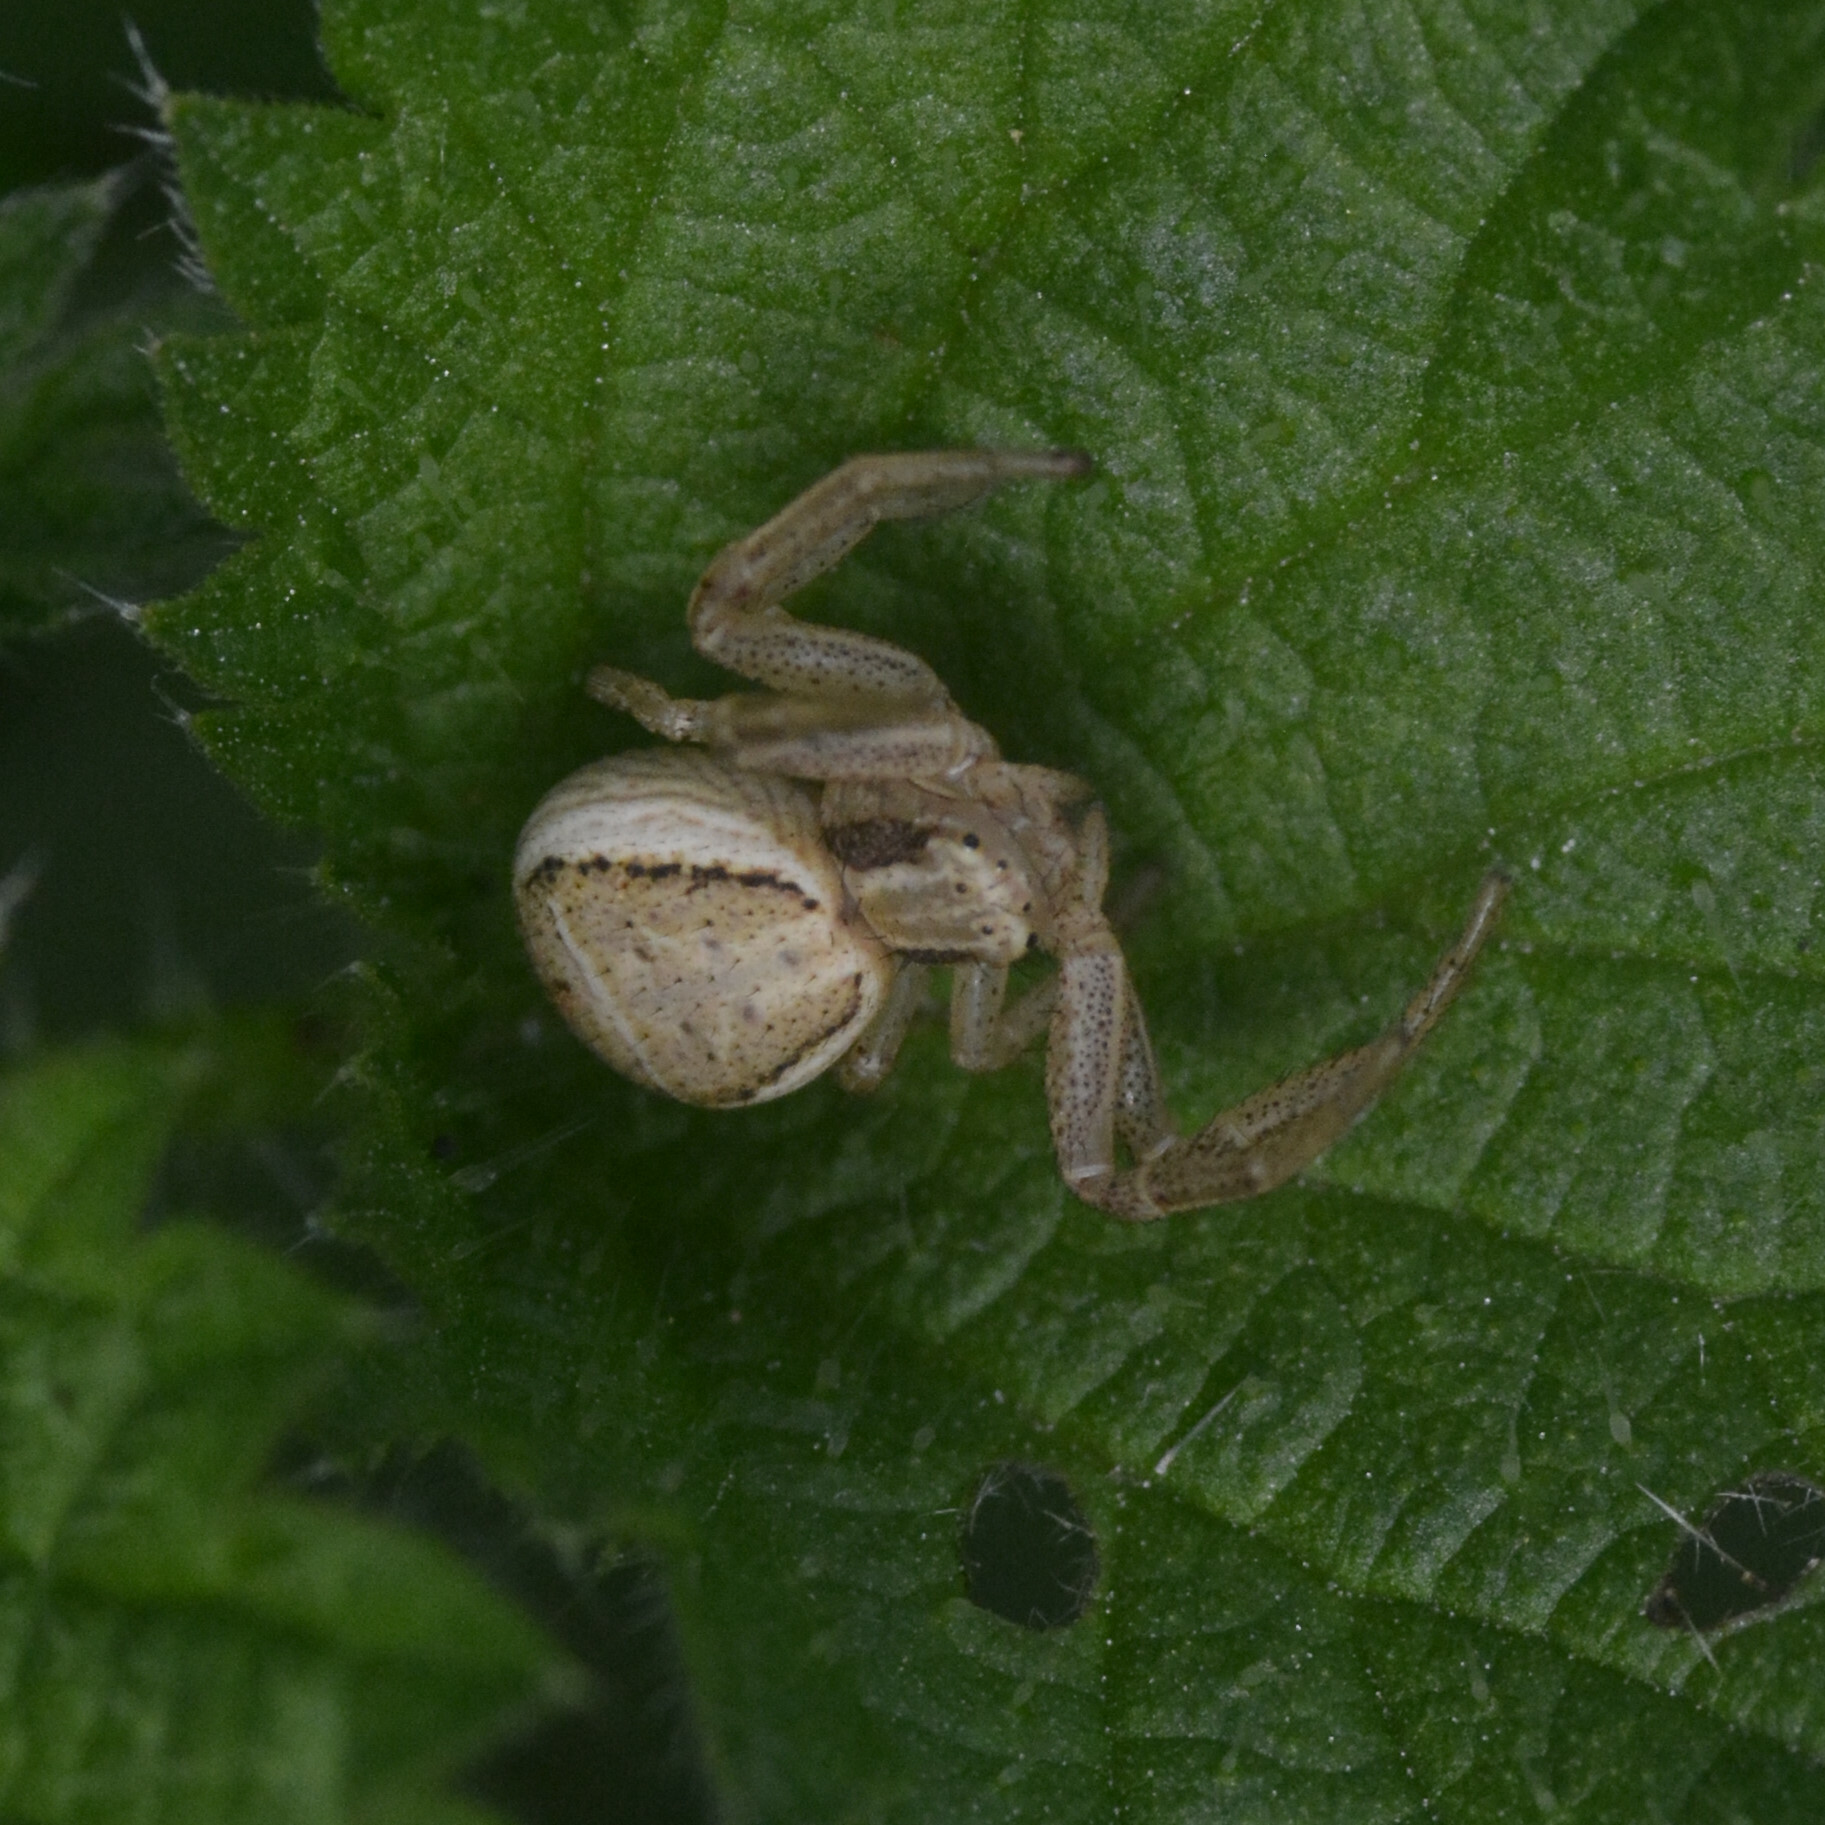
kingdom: Animalia
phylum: Arthropoda
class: Arachnida
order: Araneae
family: Thomisidae
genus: Xysticus
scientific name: Xysticus ulmi
